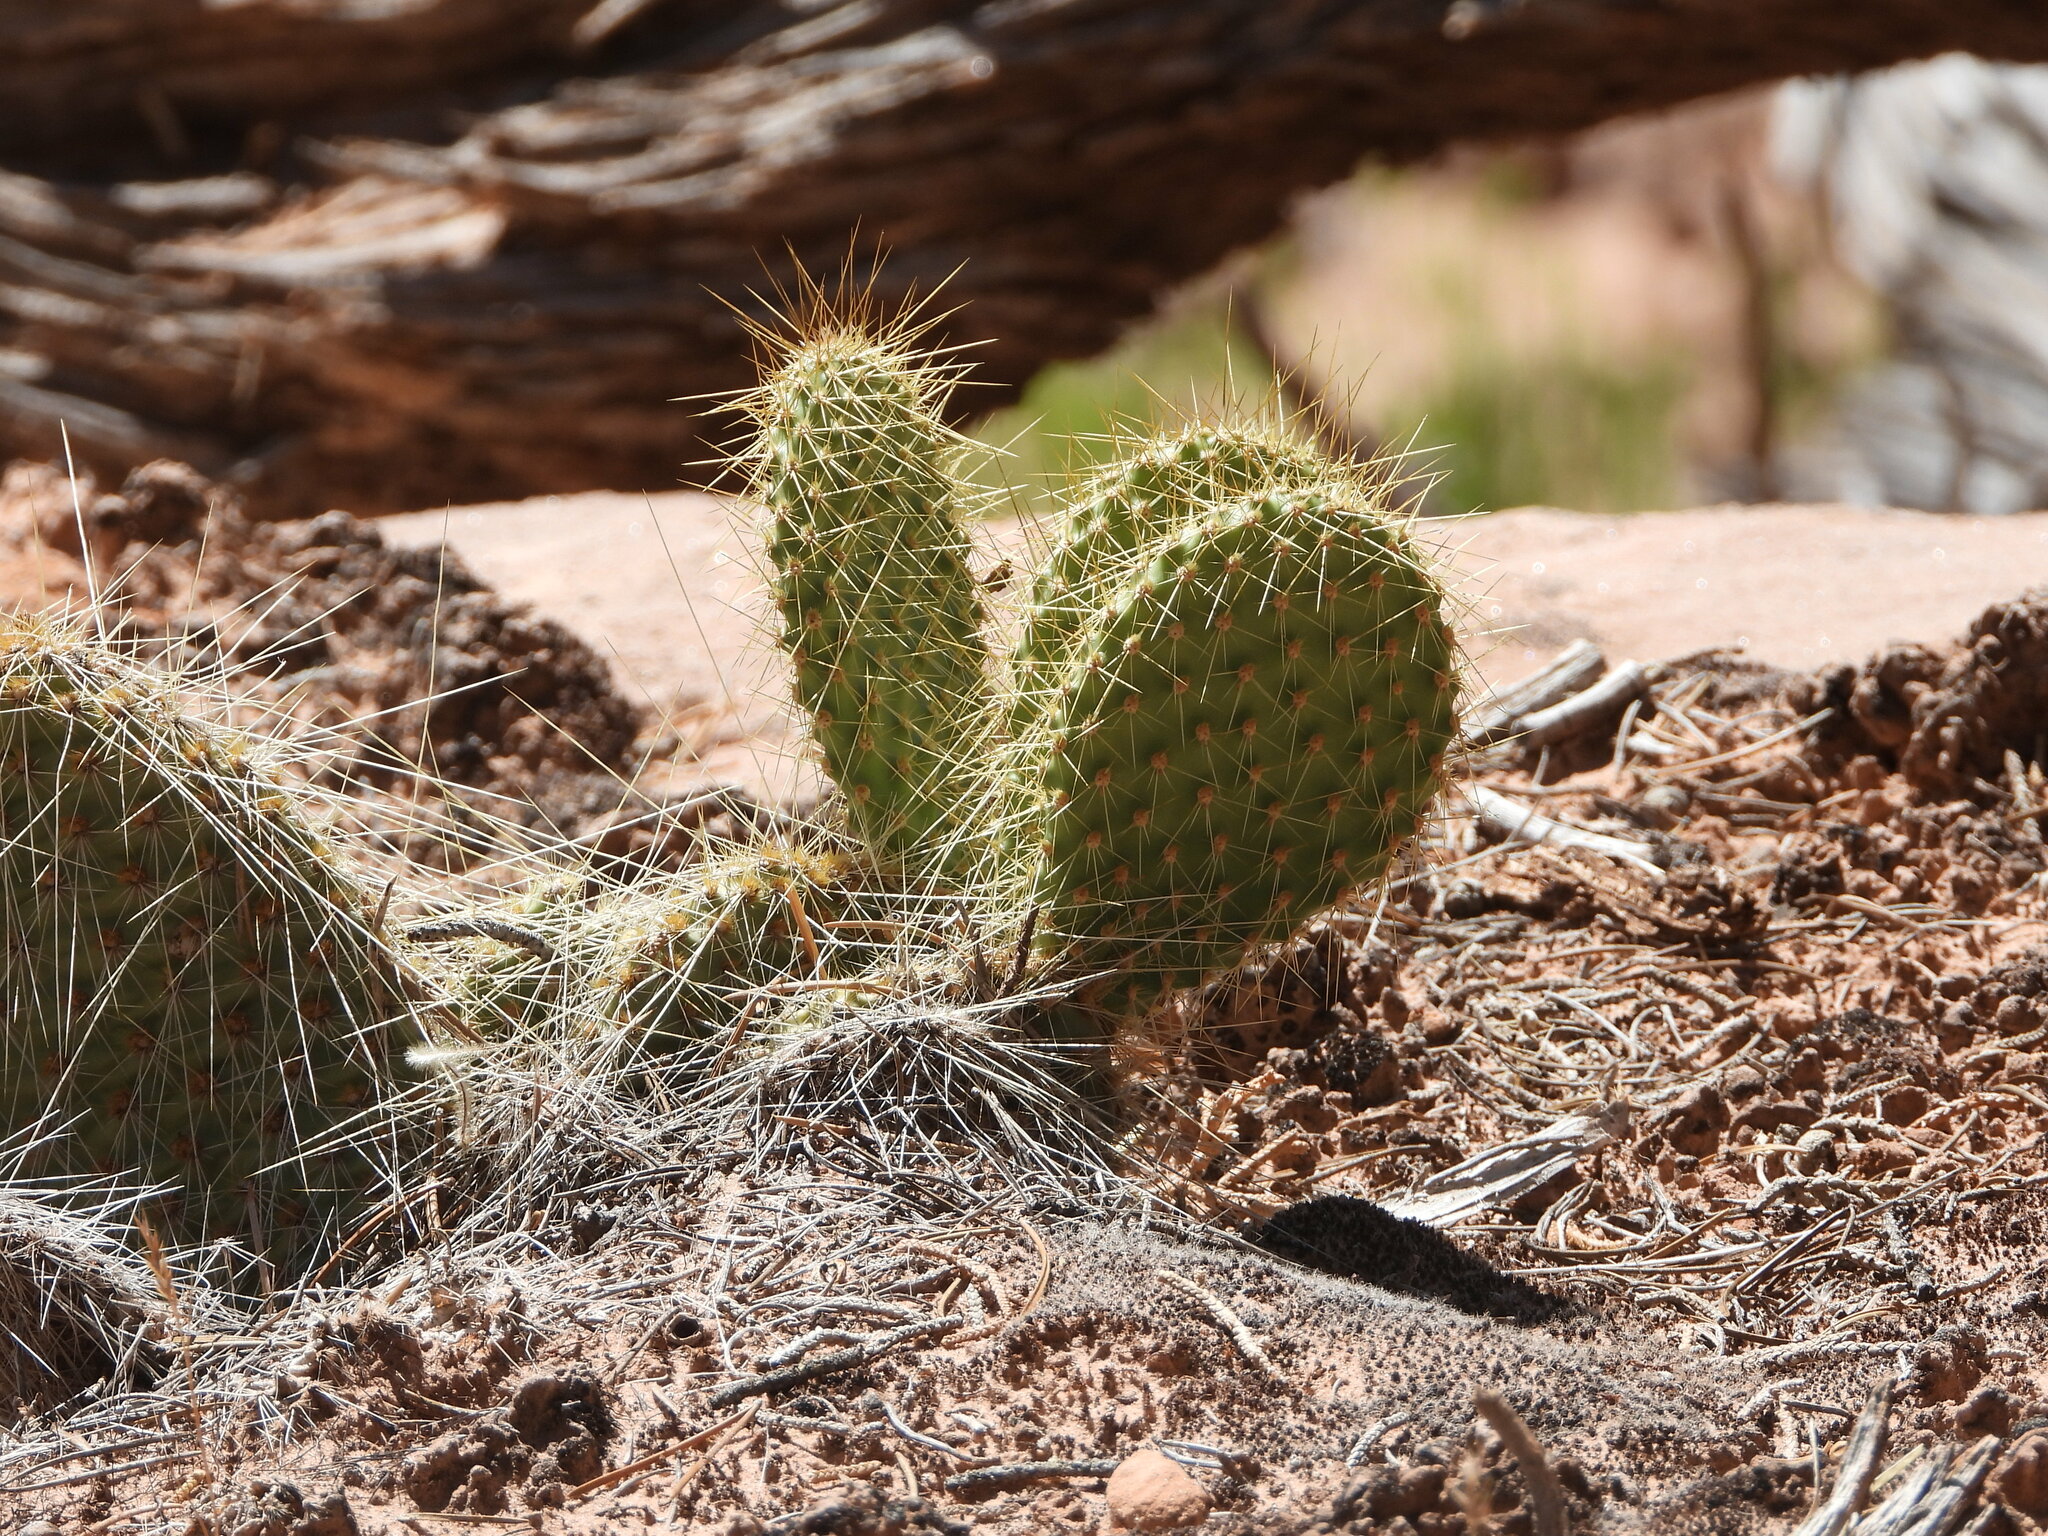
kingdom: Plantae
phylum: Tracheophyta
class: Magnoliopsida
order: Caryophyllales
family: Cactaceae
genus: Opuntia
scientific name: Opuntia polyacantha
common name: Plains prickly-pear
